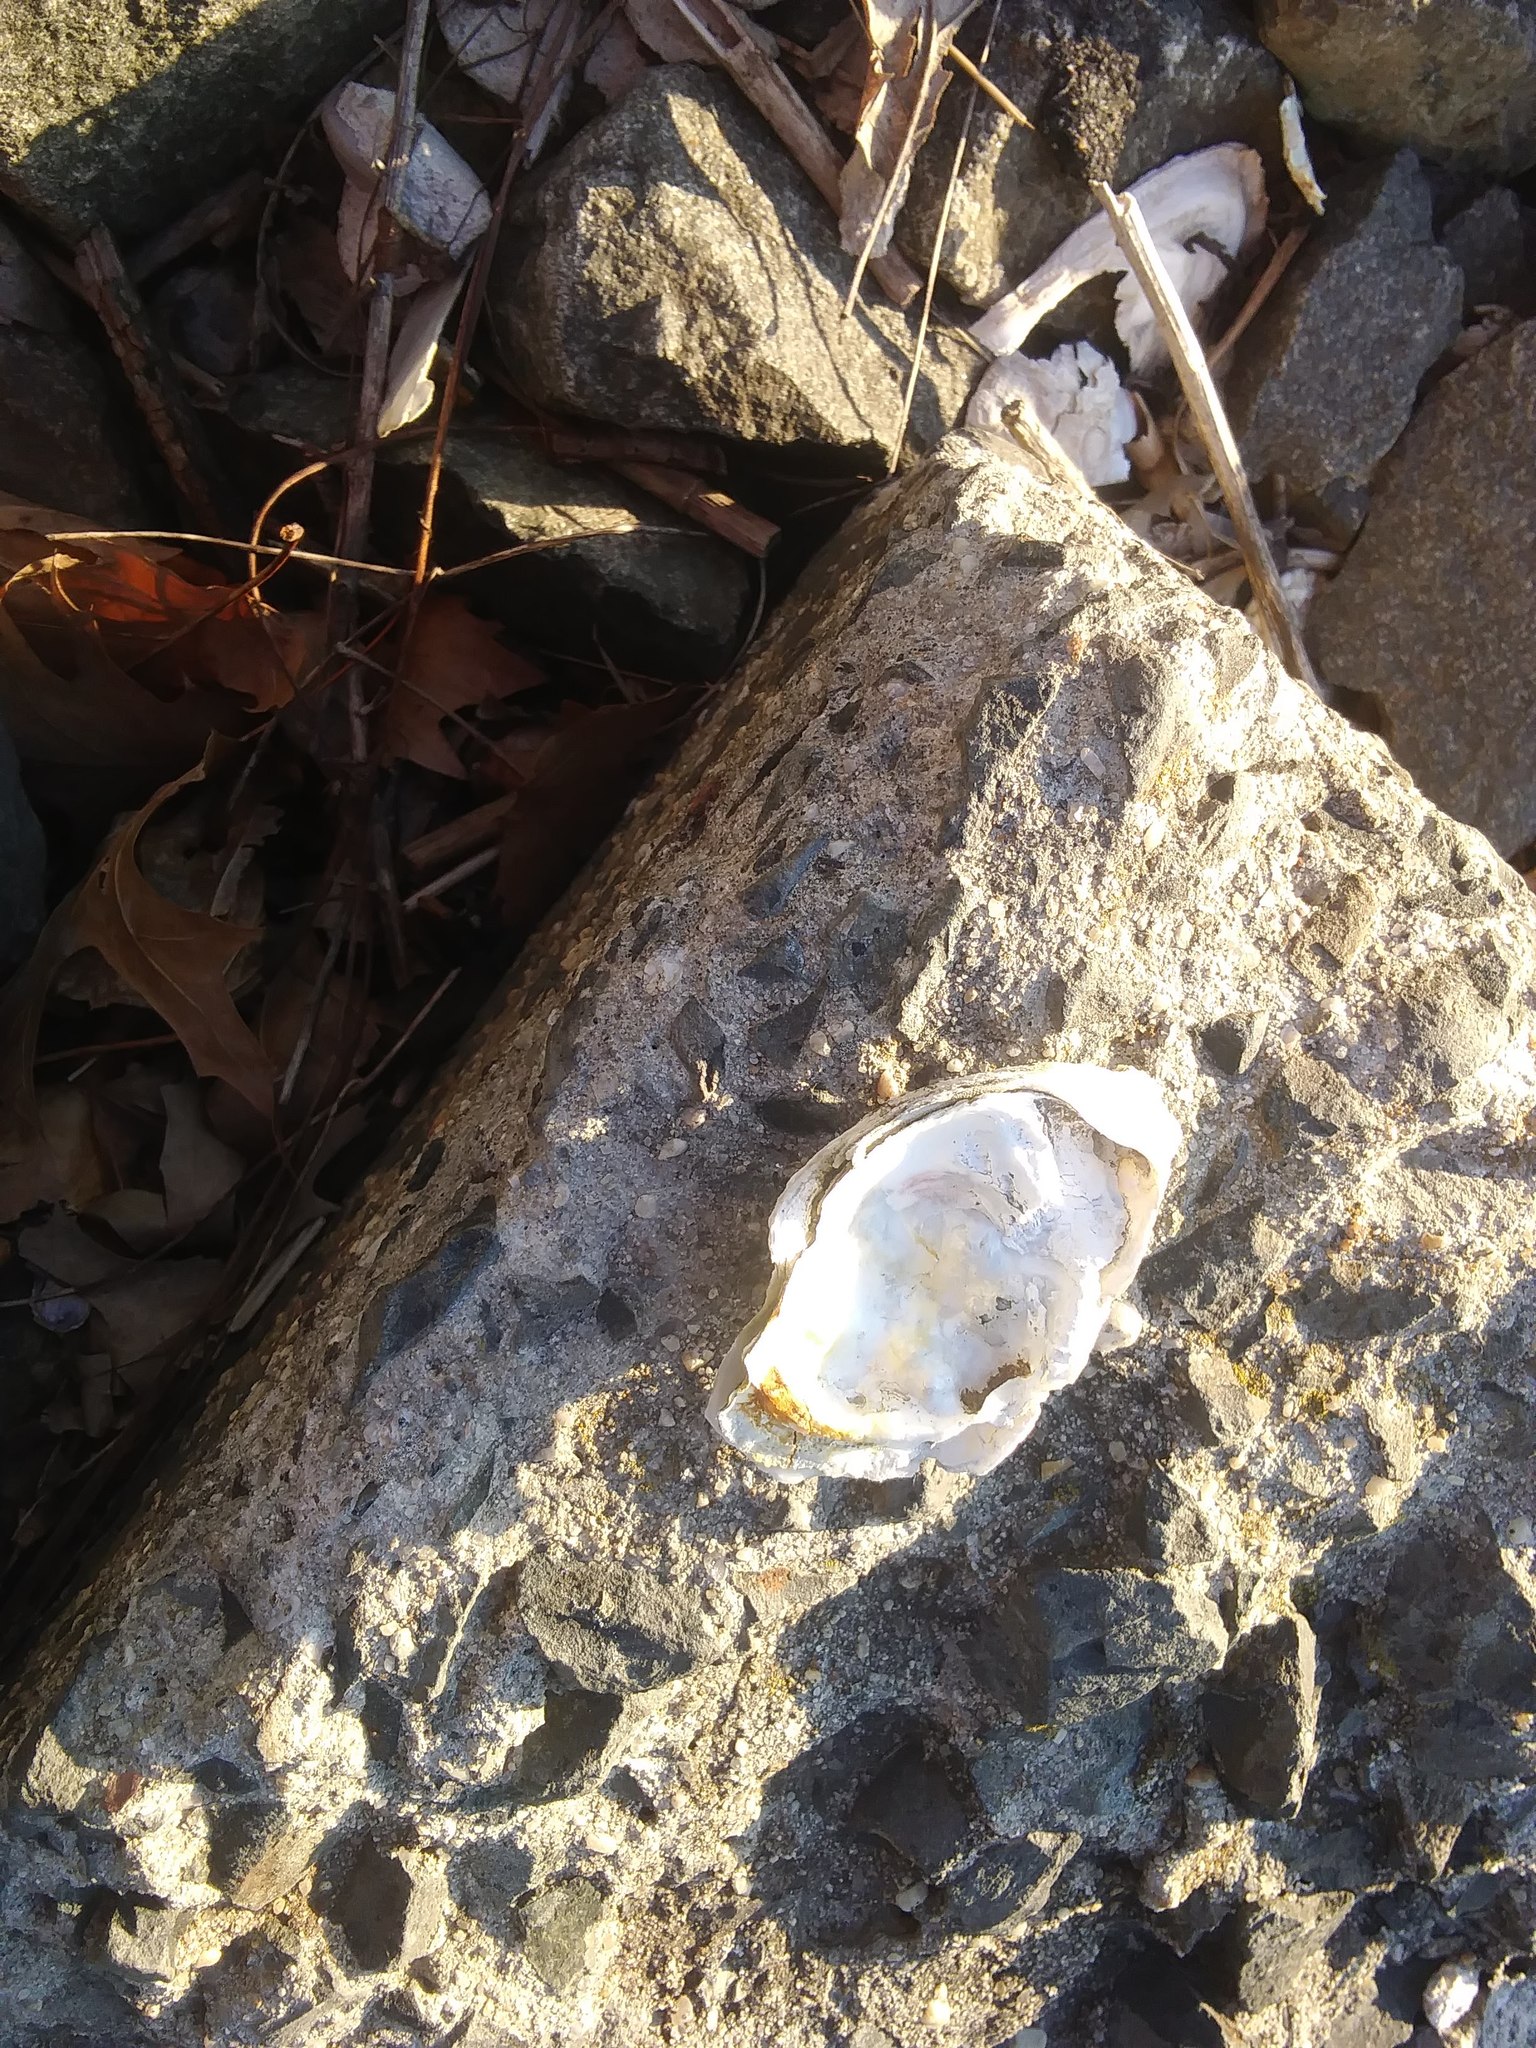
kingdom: Animalia
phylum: Mollusca
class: Bivalvia
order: Ostreida
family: Ostreidae
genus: Crassostrea
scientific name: Crassostrea virginica
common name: American oyster
